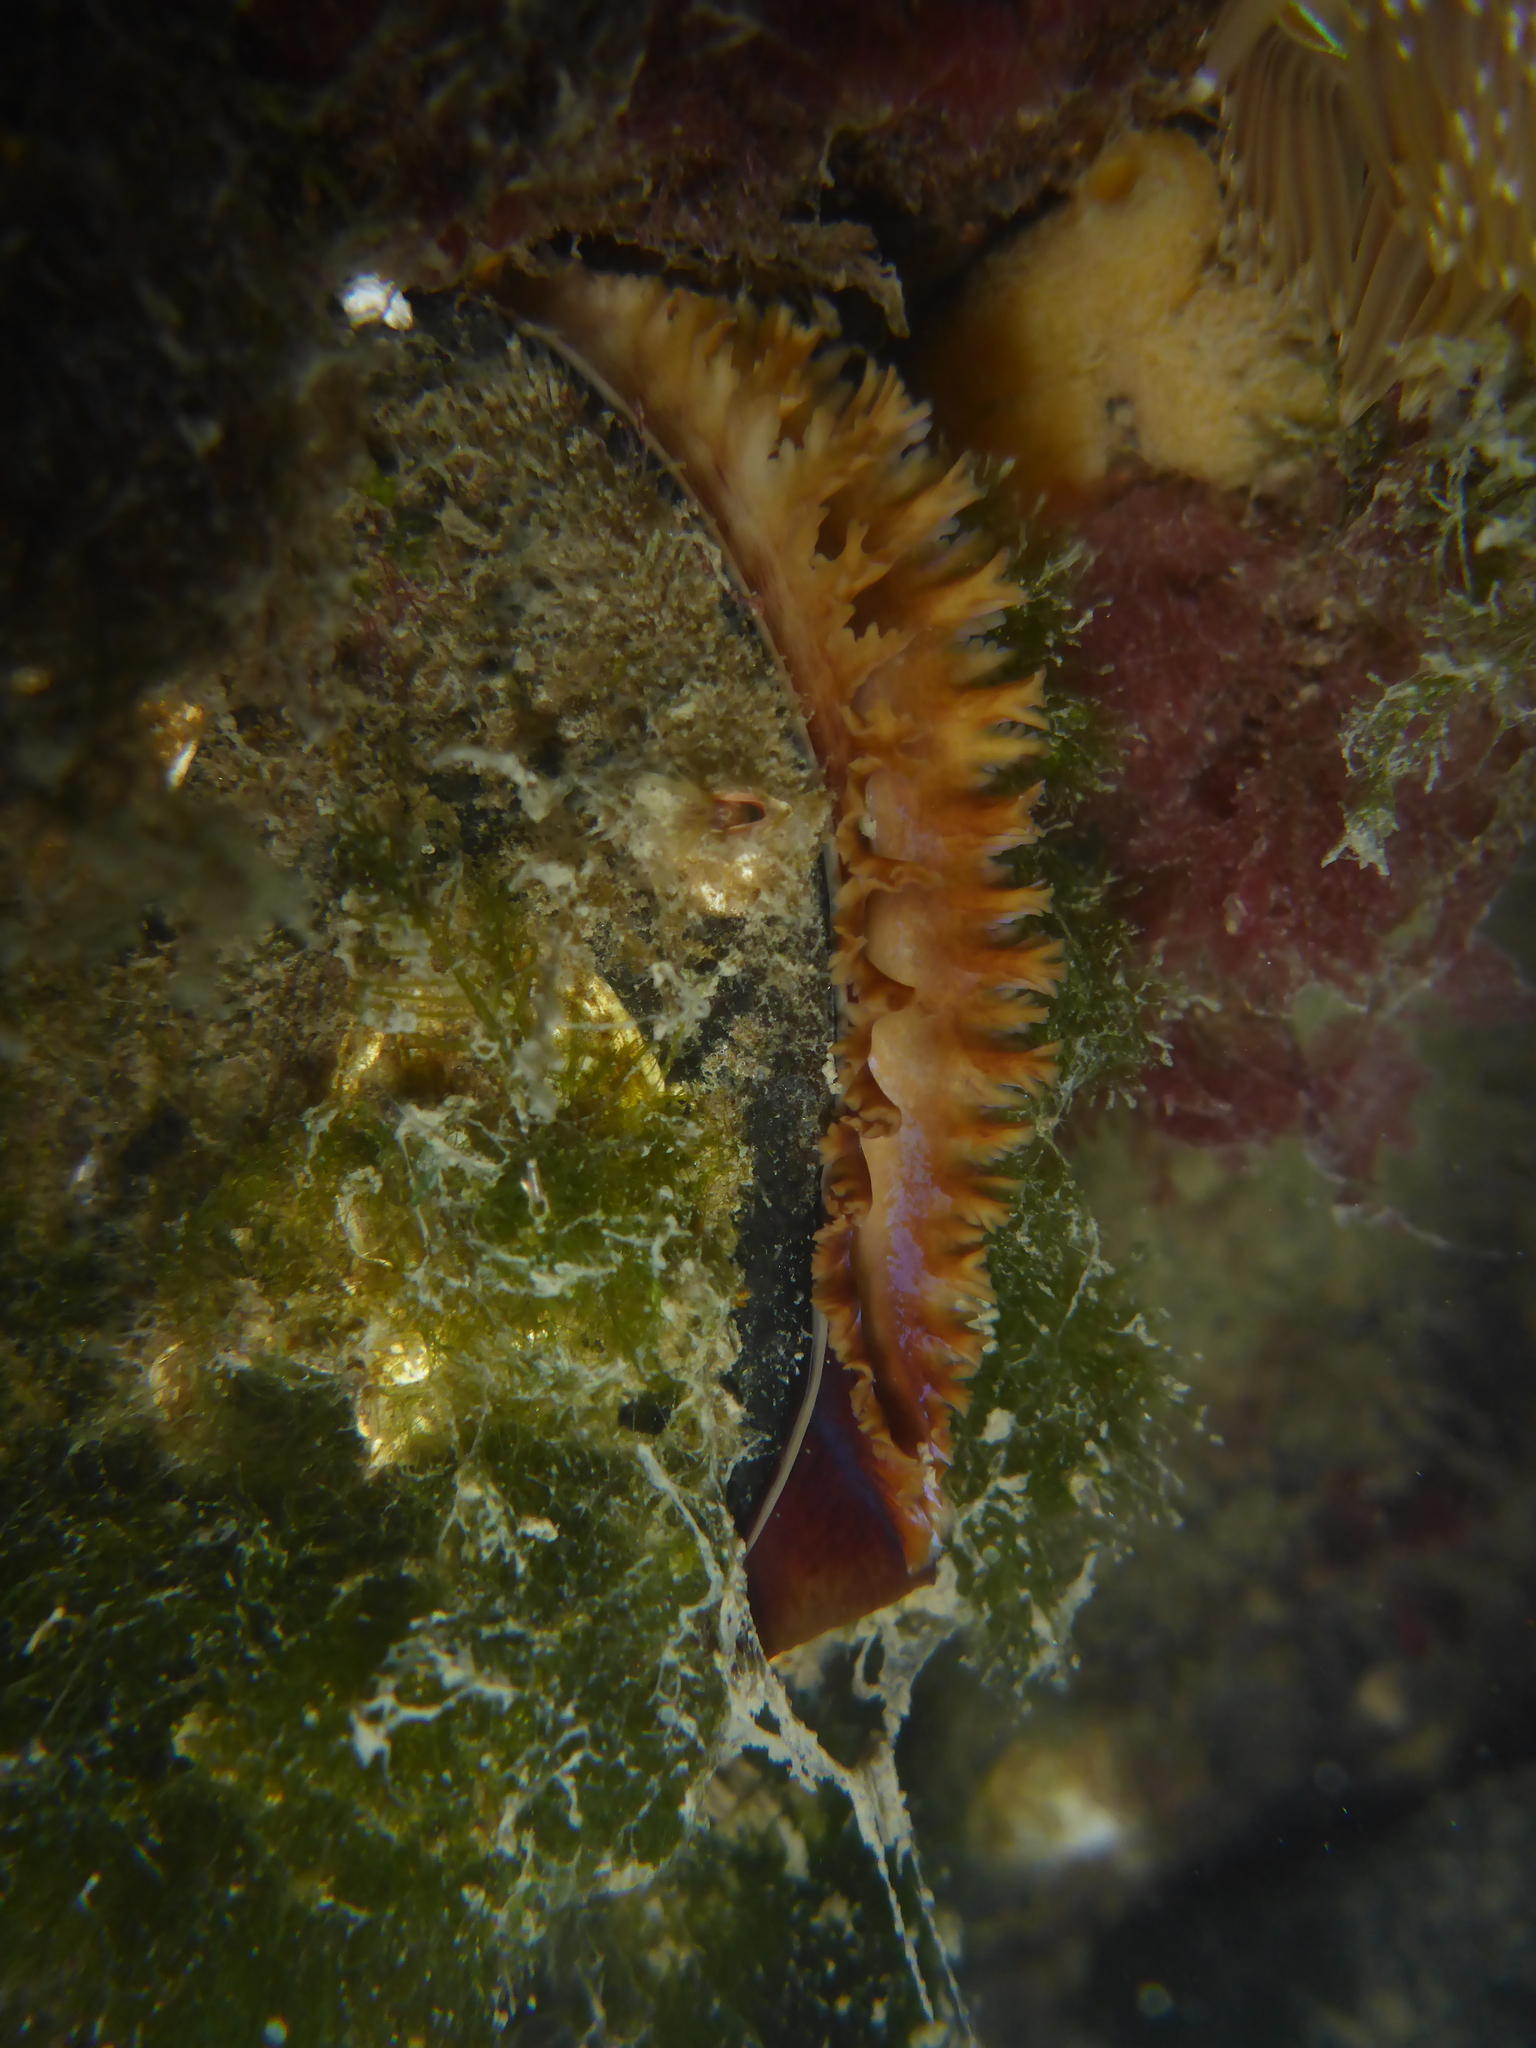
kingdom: Animalia
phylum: Mollusca
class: Bivalvia
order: Mytilida
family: Mytilidae
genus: Mytilus
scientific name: Mytilus
